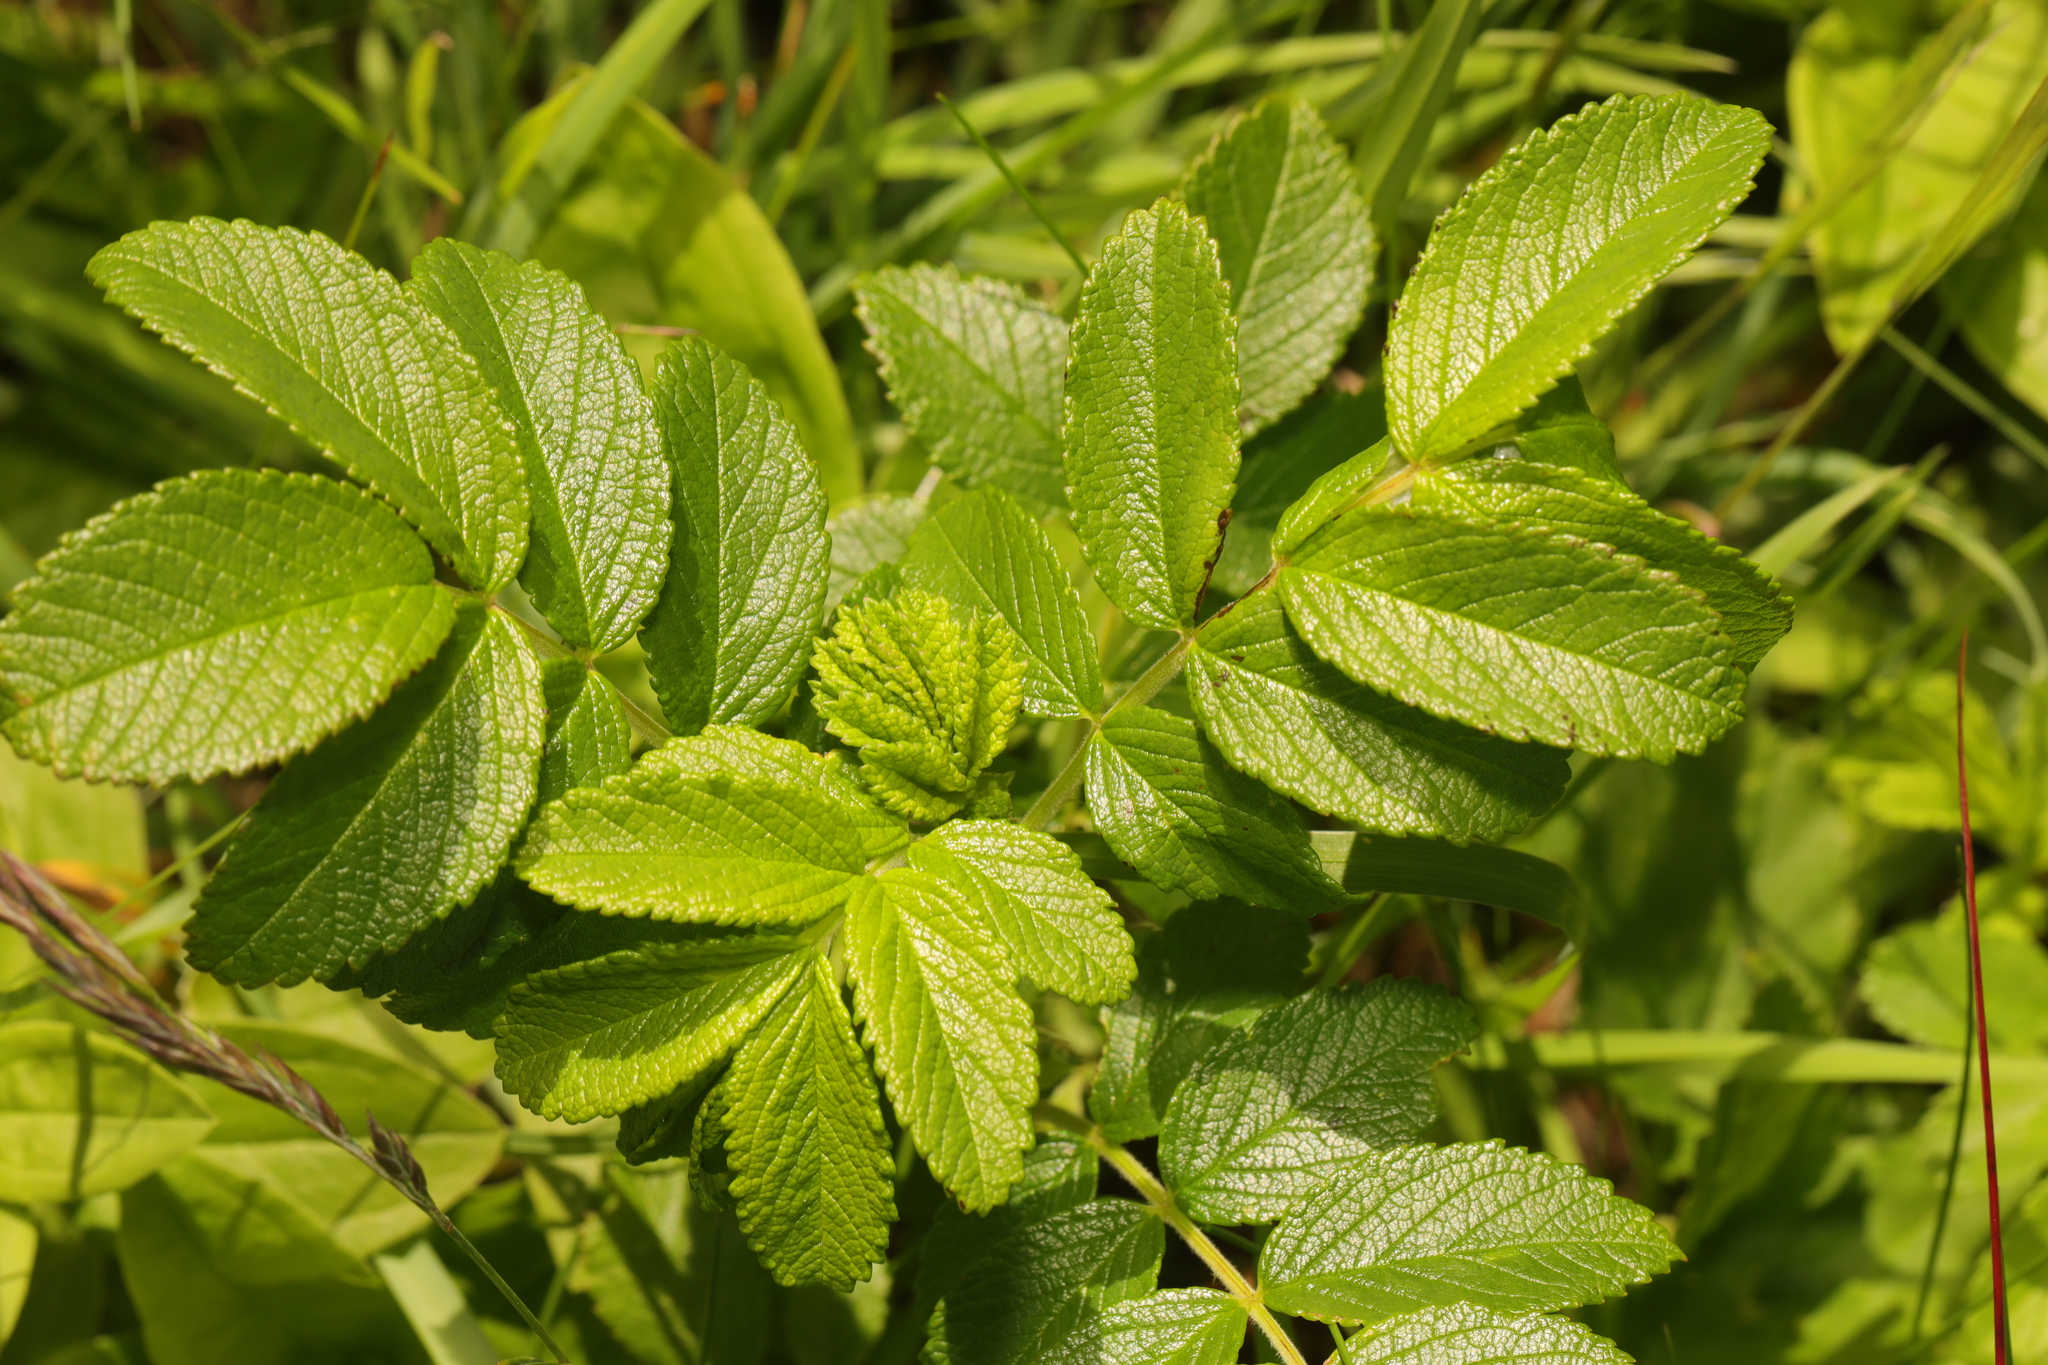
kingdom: Plantae
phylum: Tracheophyta
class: Magnoliopsida
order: Rosales
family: Rosaceae
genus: Rosa
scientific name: Rosa rugosa
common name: Japanese rose
